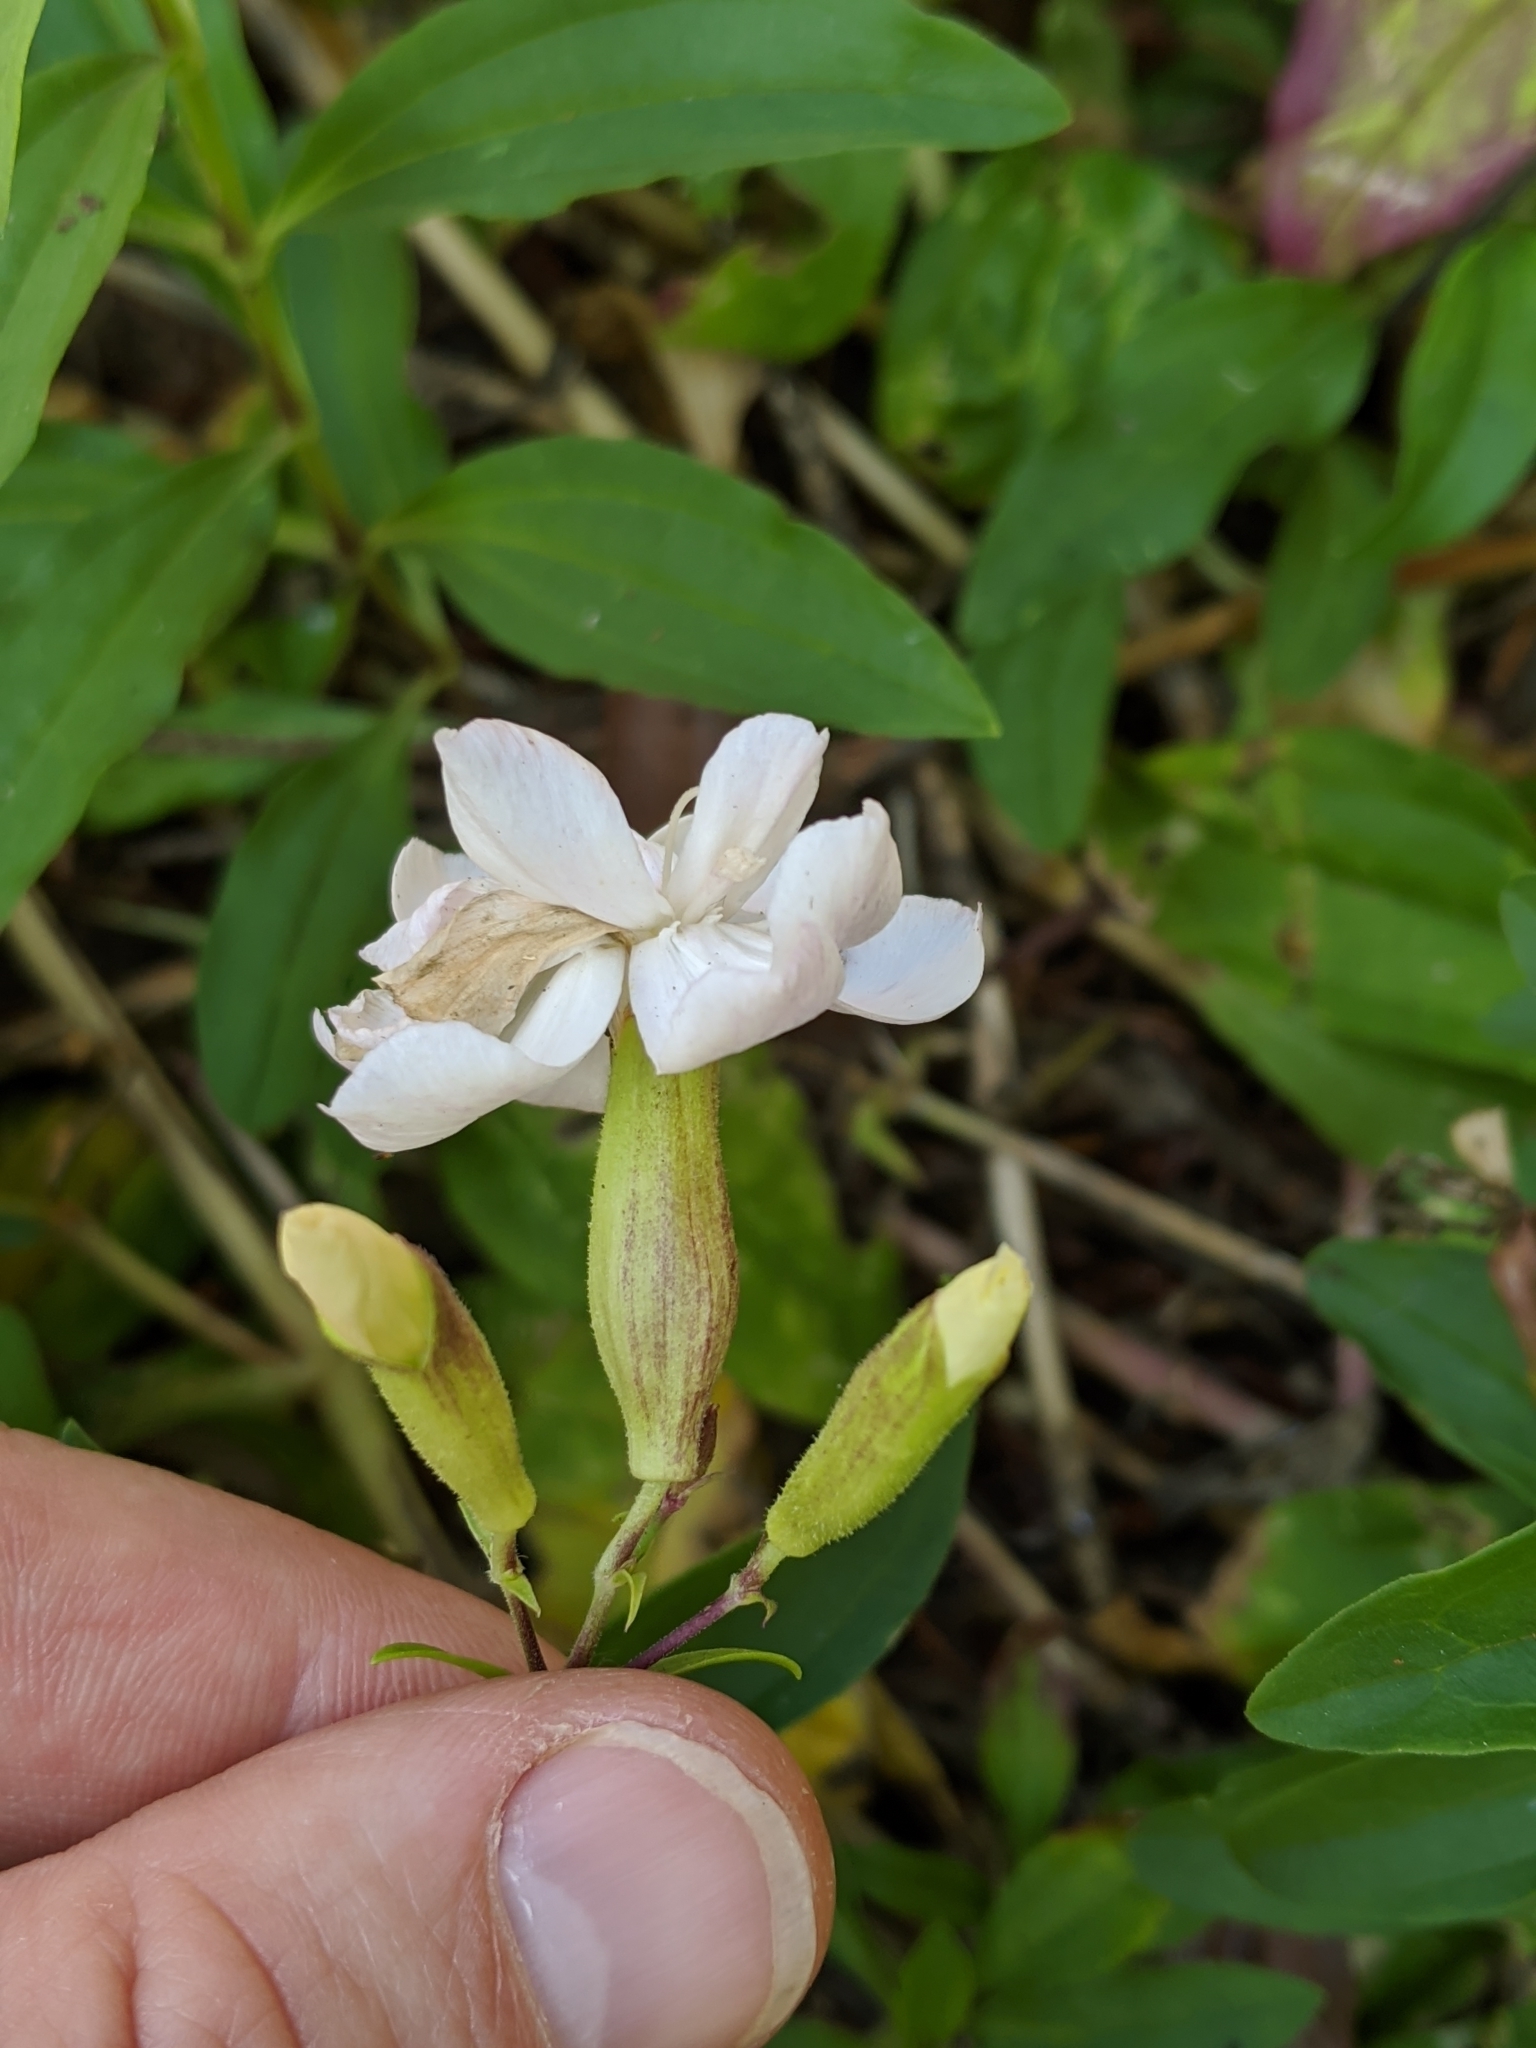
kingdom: Plantae
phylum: Tracheophyta
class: Magnoliopsida
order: Caryophyllales
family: Caryophyllaceae
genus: Saponaria
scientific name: Saponaria officinalis
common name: Soapwort
